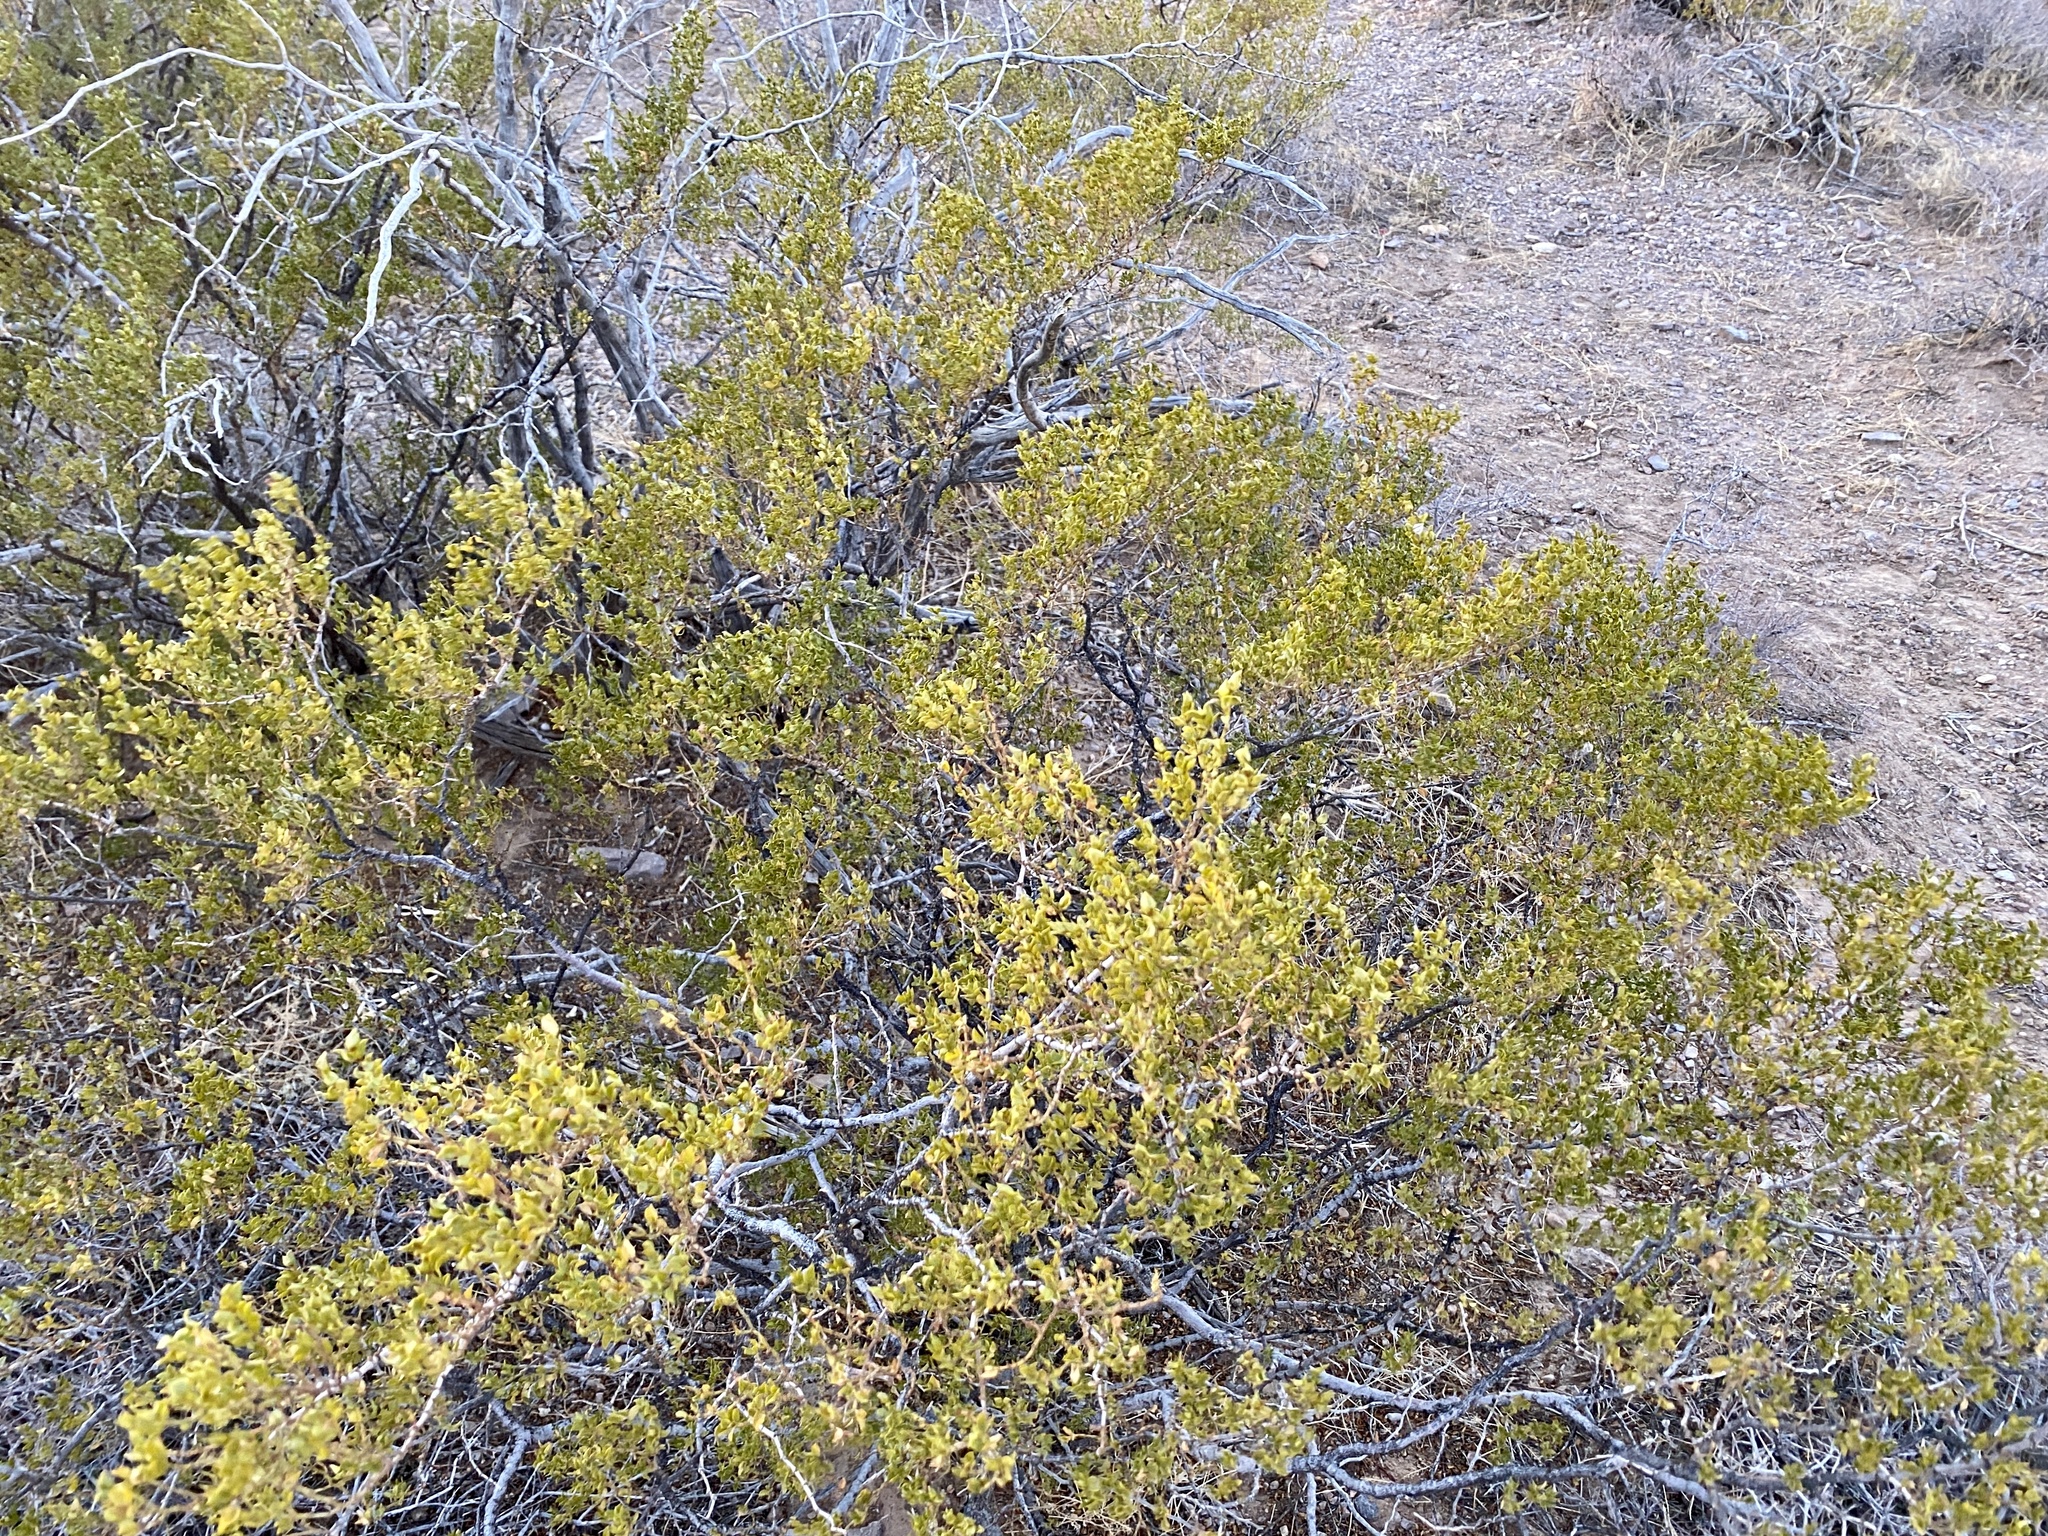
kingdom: Plantae
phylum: Tracheophyta
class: Magnoliopsida
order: Zygophyllales
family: Zygophyllaceae
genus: Larrea
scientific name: Larrea tridentata
